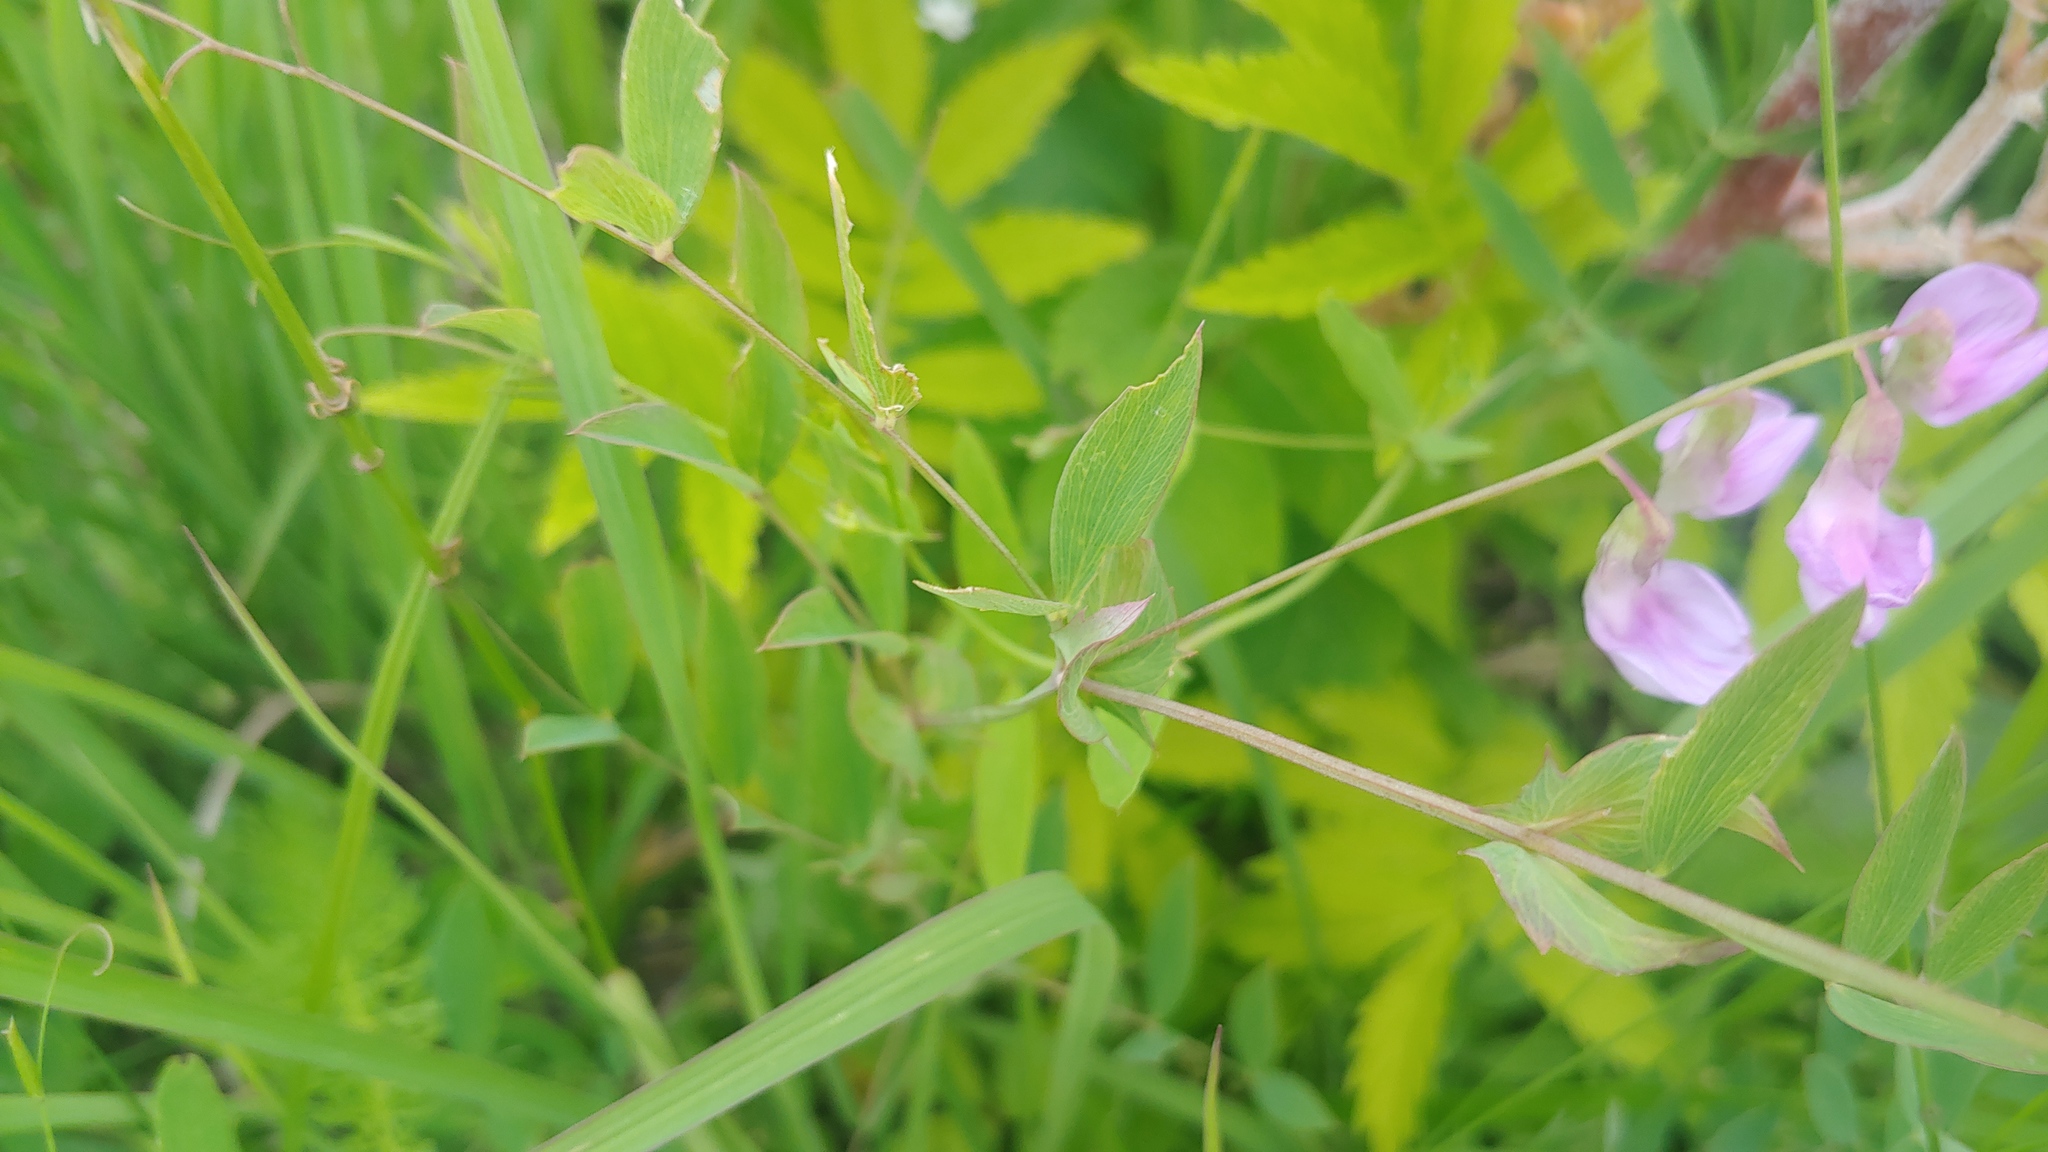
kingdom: Plantae
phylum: Tracheophyta
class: Magnoliopsida
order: Fabales
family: Fabaceae
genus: Lathyrus
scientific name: Lathyrus palustris
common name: Marsh pea
